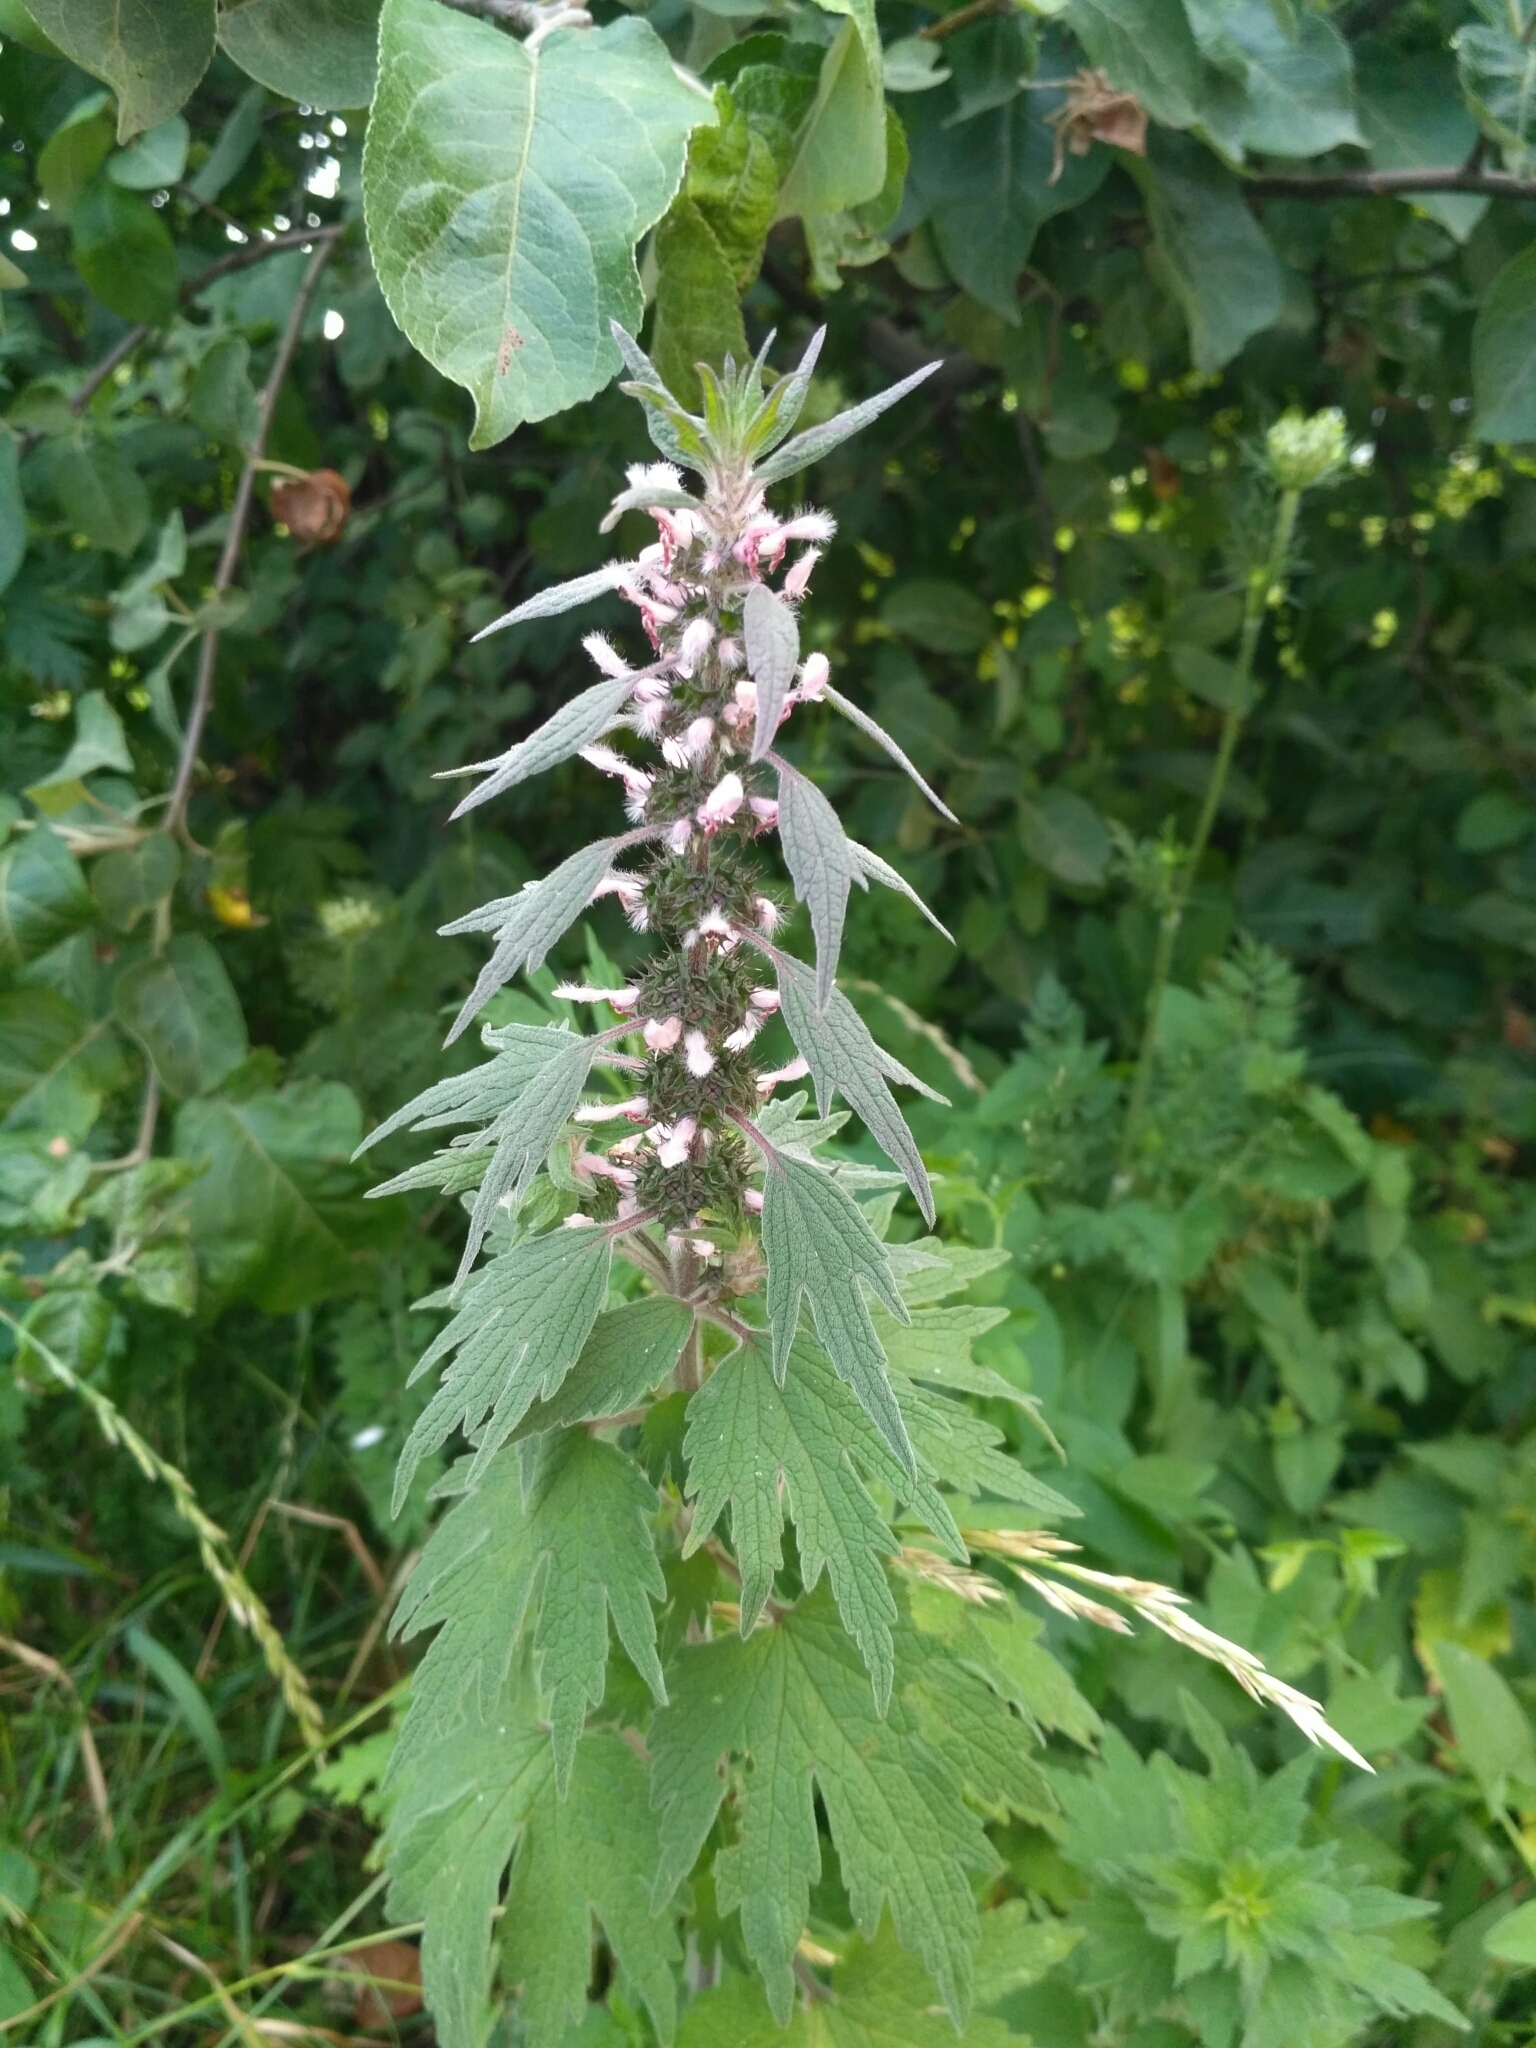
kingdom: Plantae
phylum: Tracheophyta
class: Magnoliopsida
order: Lamiales
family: Lamiaceae
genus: Leonurus
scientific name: Leonurus quinquelobatus
